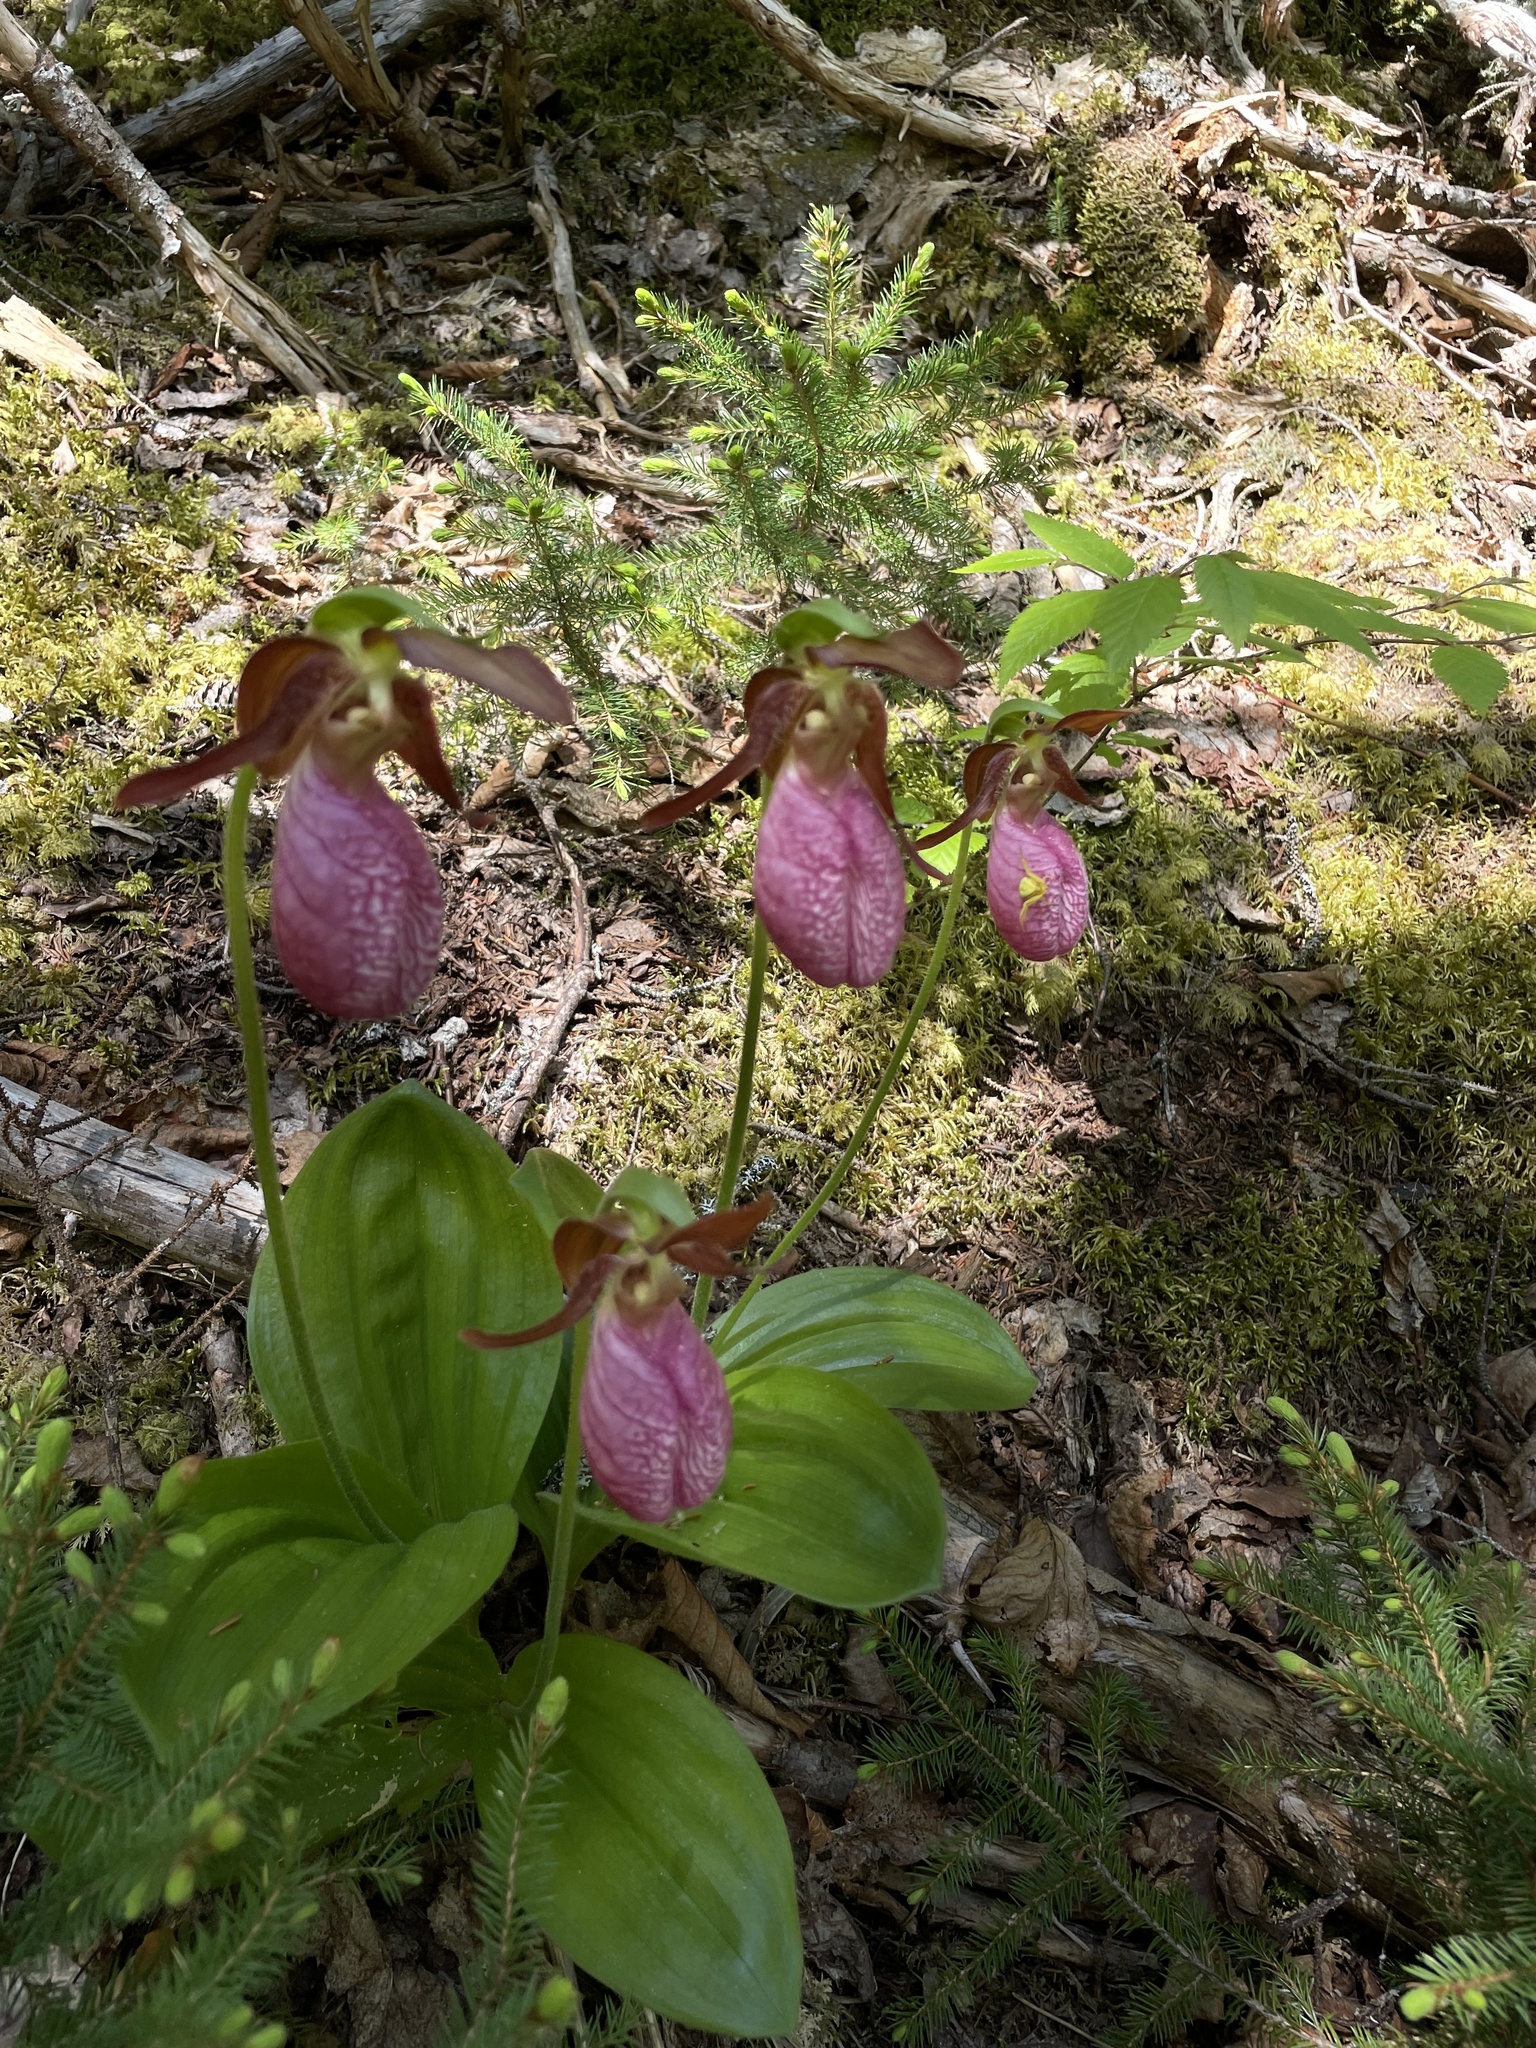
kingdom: Plantae
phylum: Tracheophyta
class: Liliopsida
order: Asparagales
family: Orchidaceae
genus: Cypripedium
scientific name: Cypripedium acaule
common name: Pink lady's-slipper
